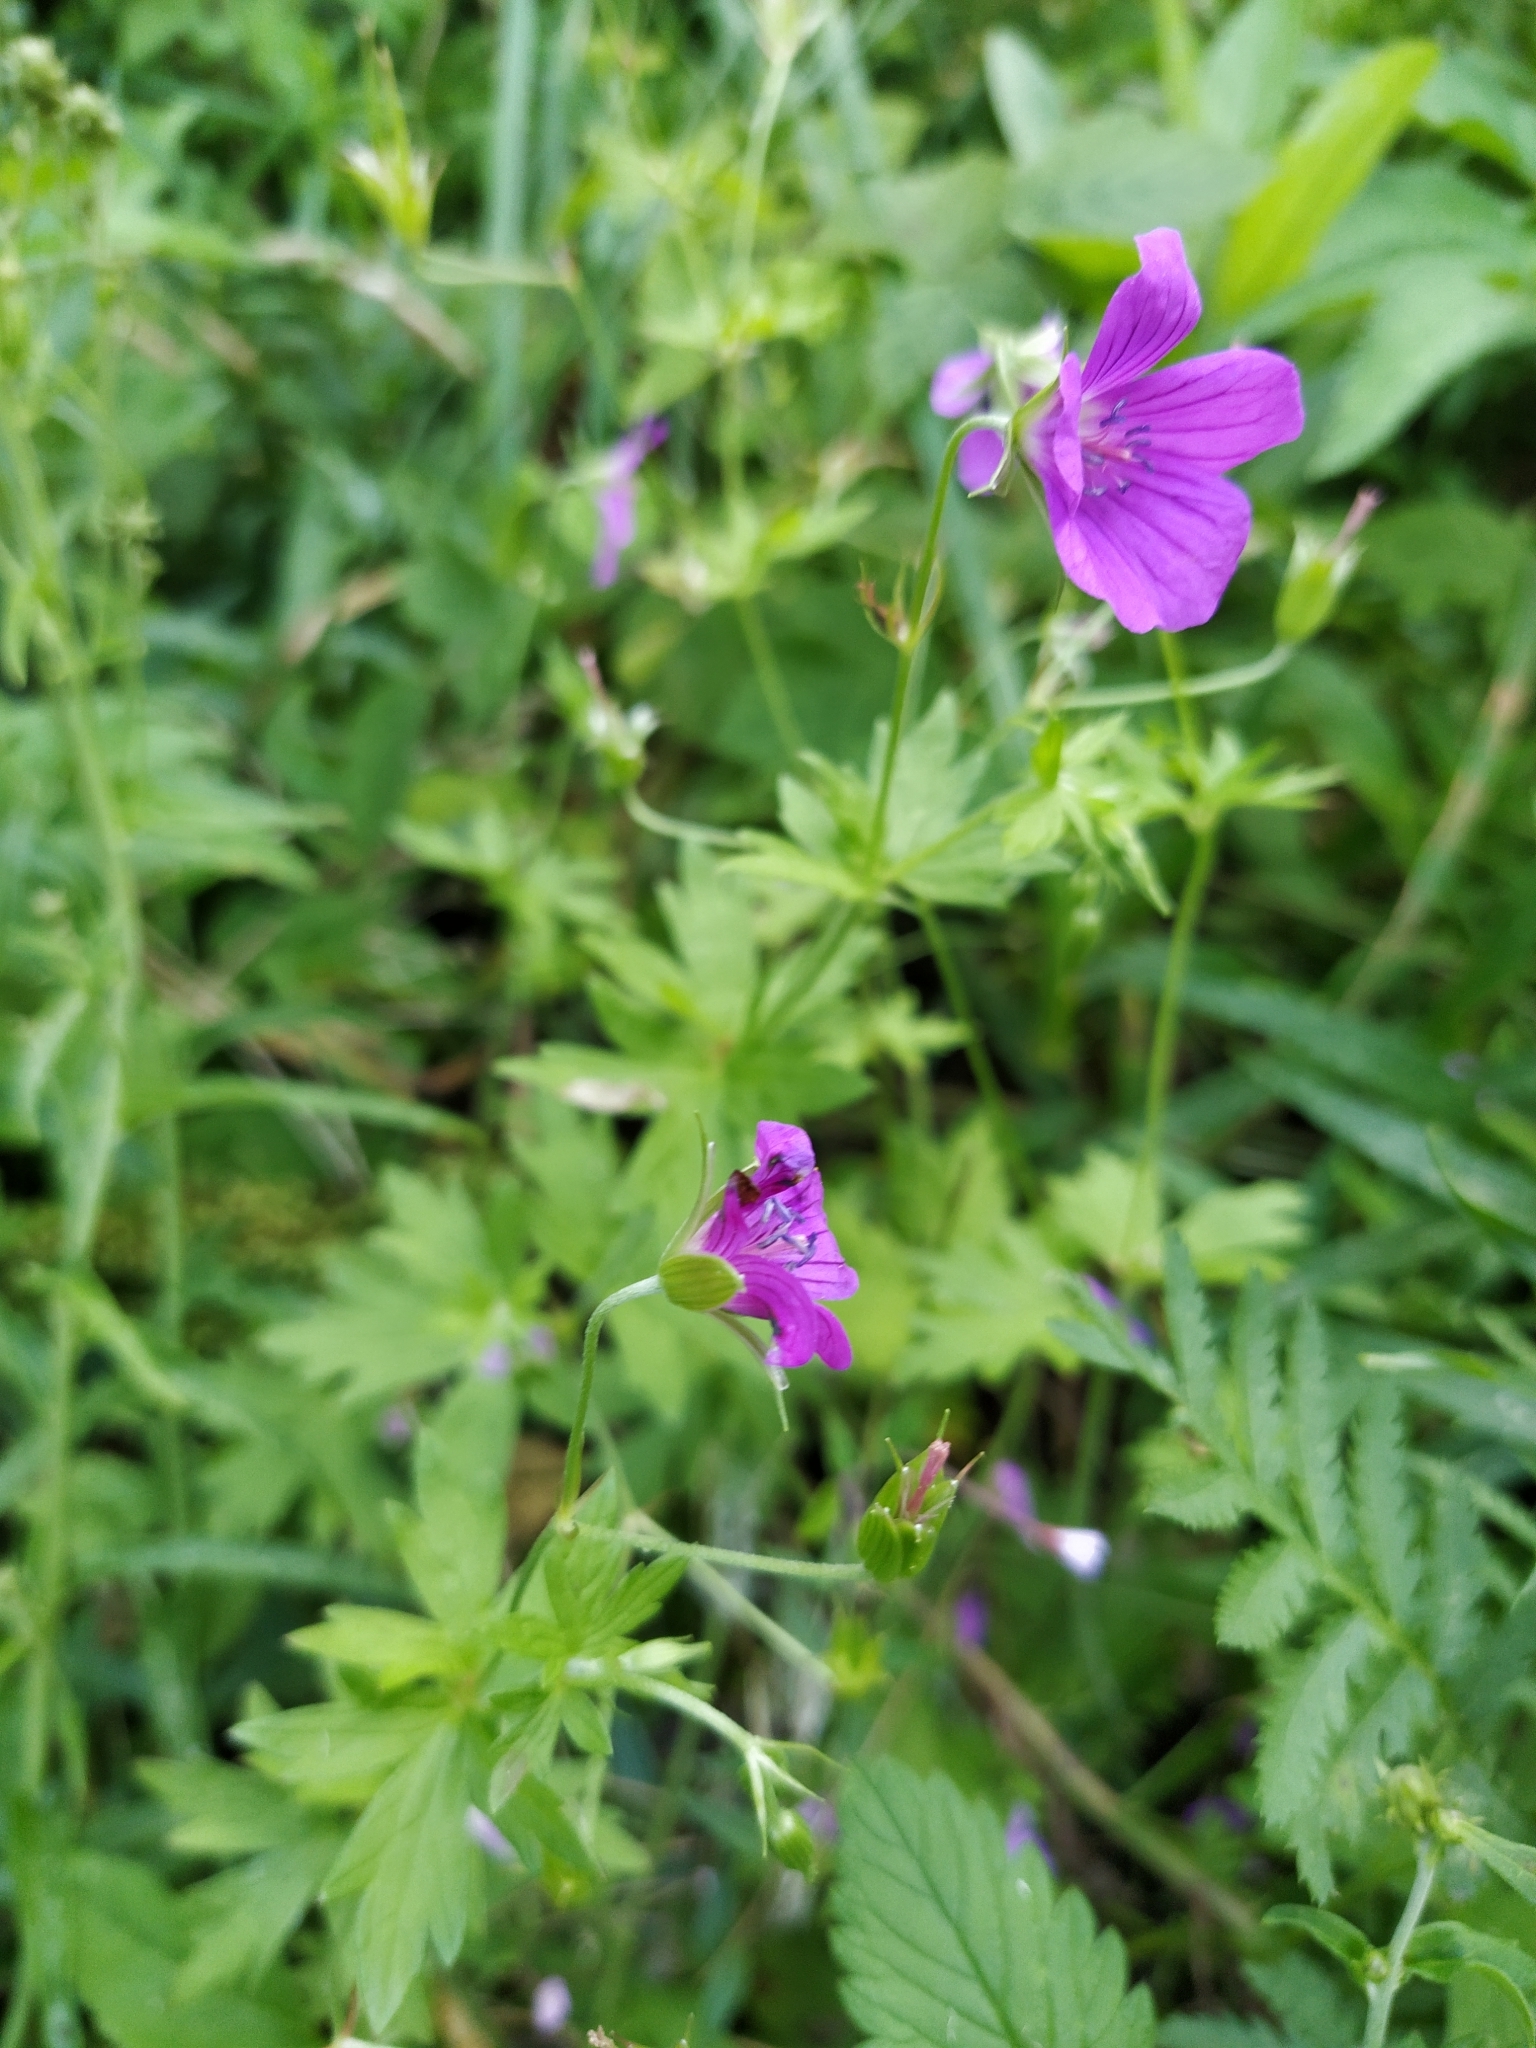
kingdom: Plantae
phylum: Tracheophyta
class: Magnoliopsida
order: Geraniales
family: Geraniaceae
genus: Geranium
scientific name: Geranium palustre
